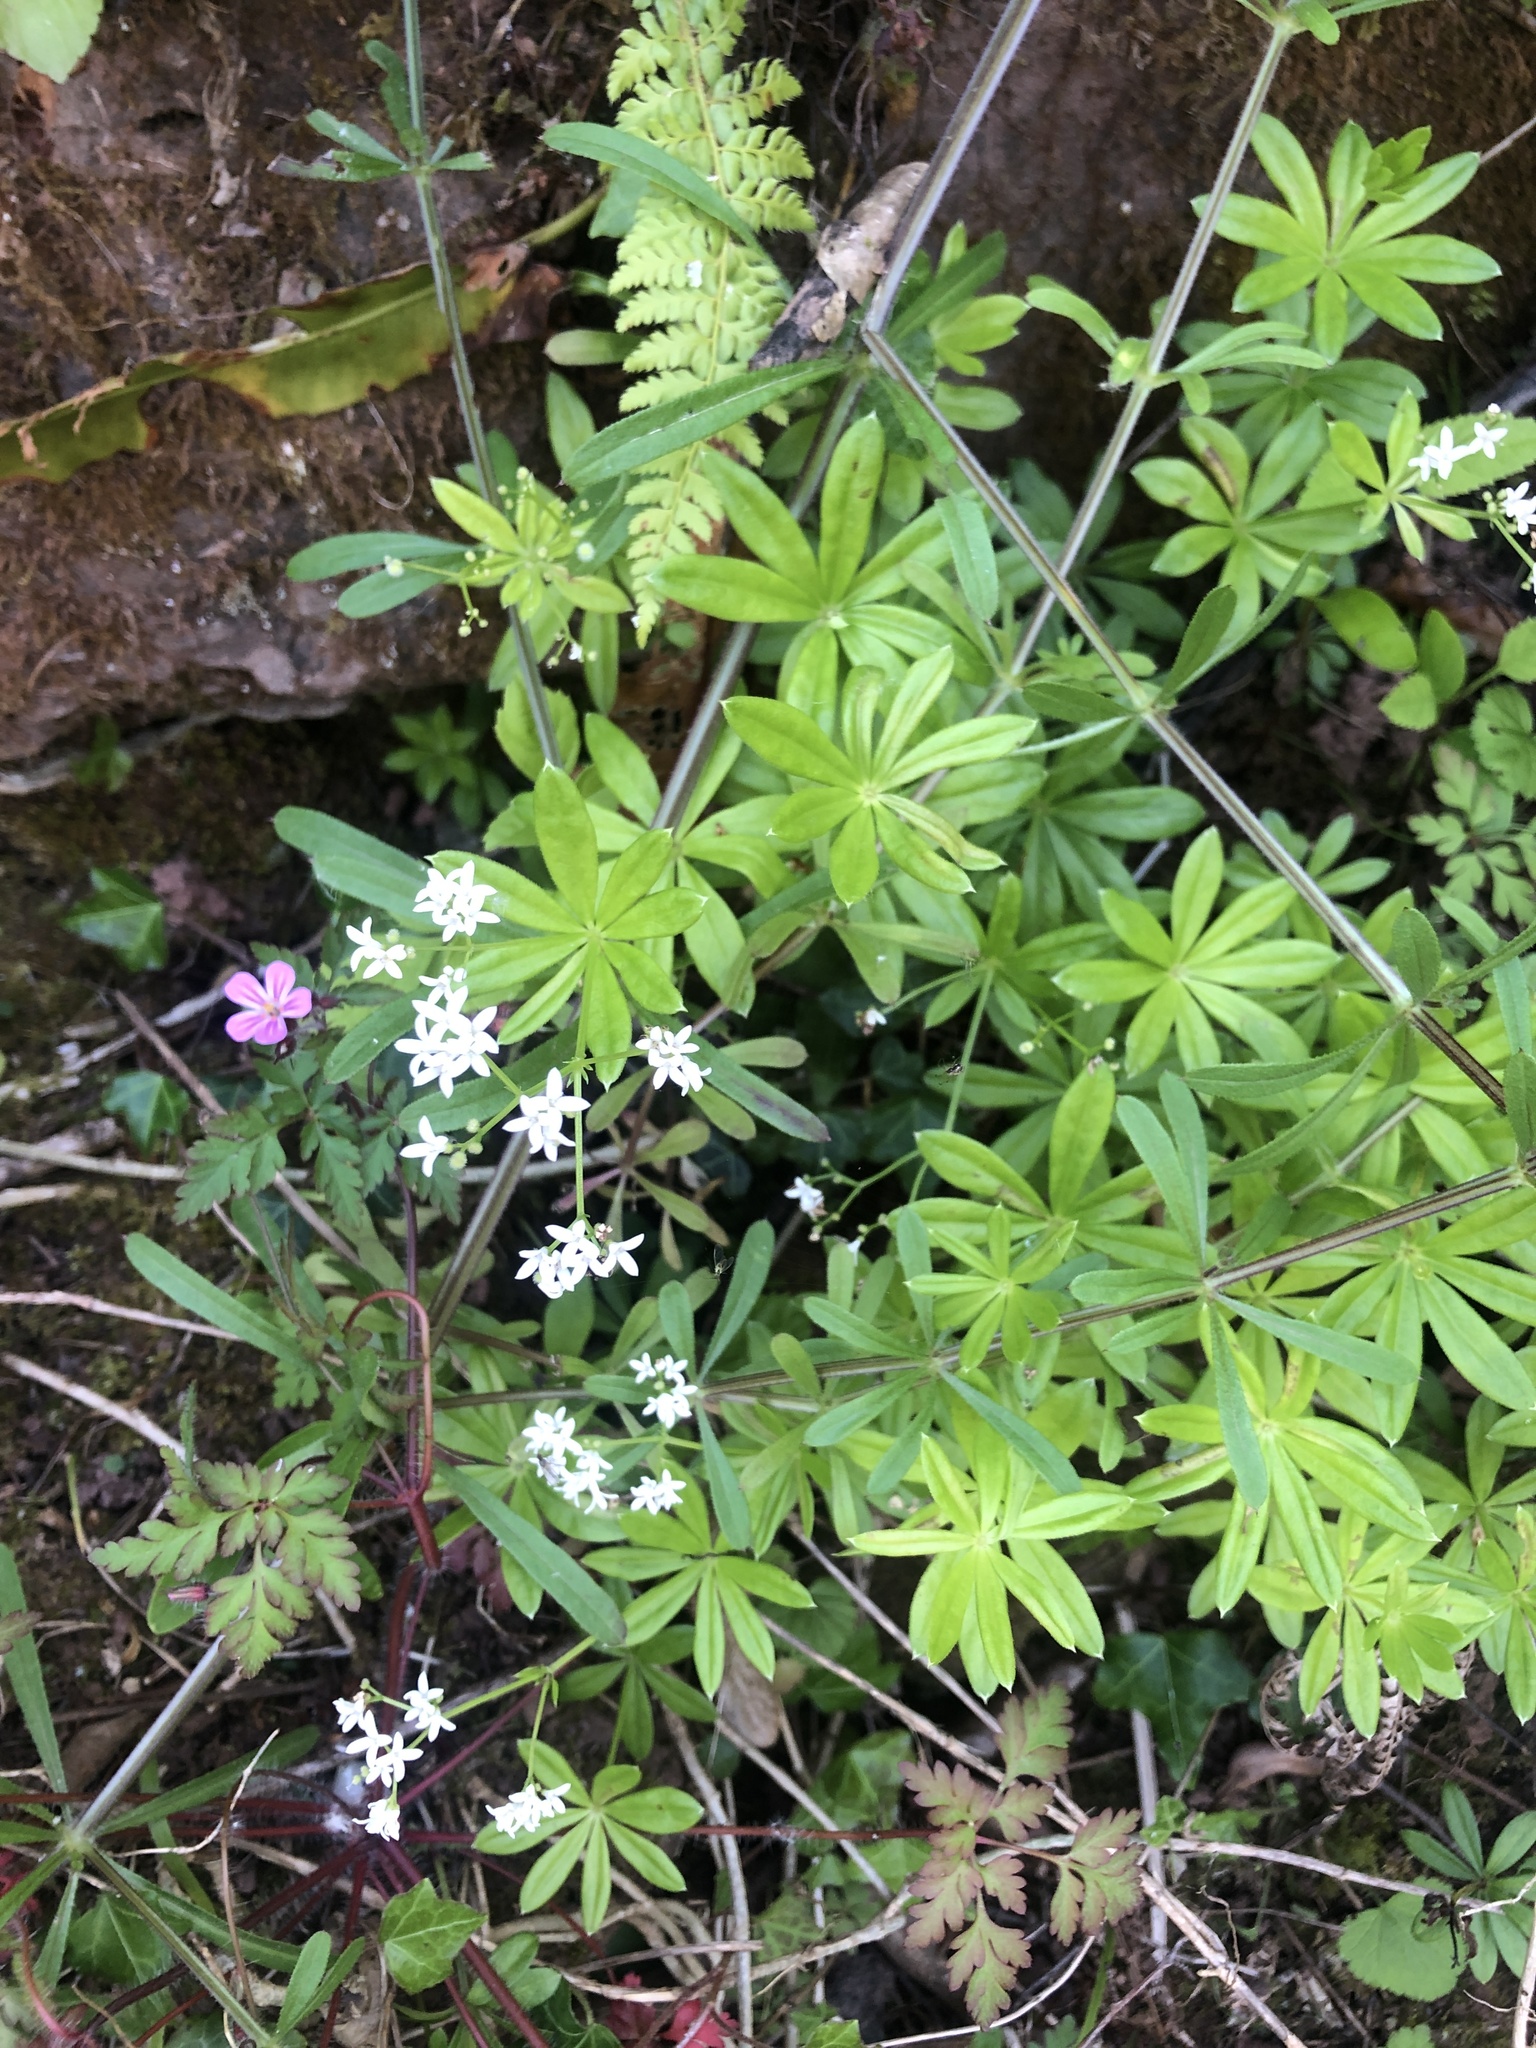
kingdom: Plantae
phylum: Tracheophyta
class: Magnoliopsida
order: Gentianales
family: Rubiaceae
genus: Galium
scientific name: Galium odoratum
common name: Sweet woodruff
